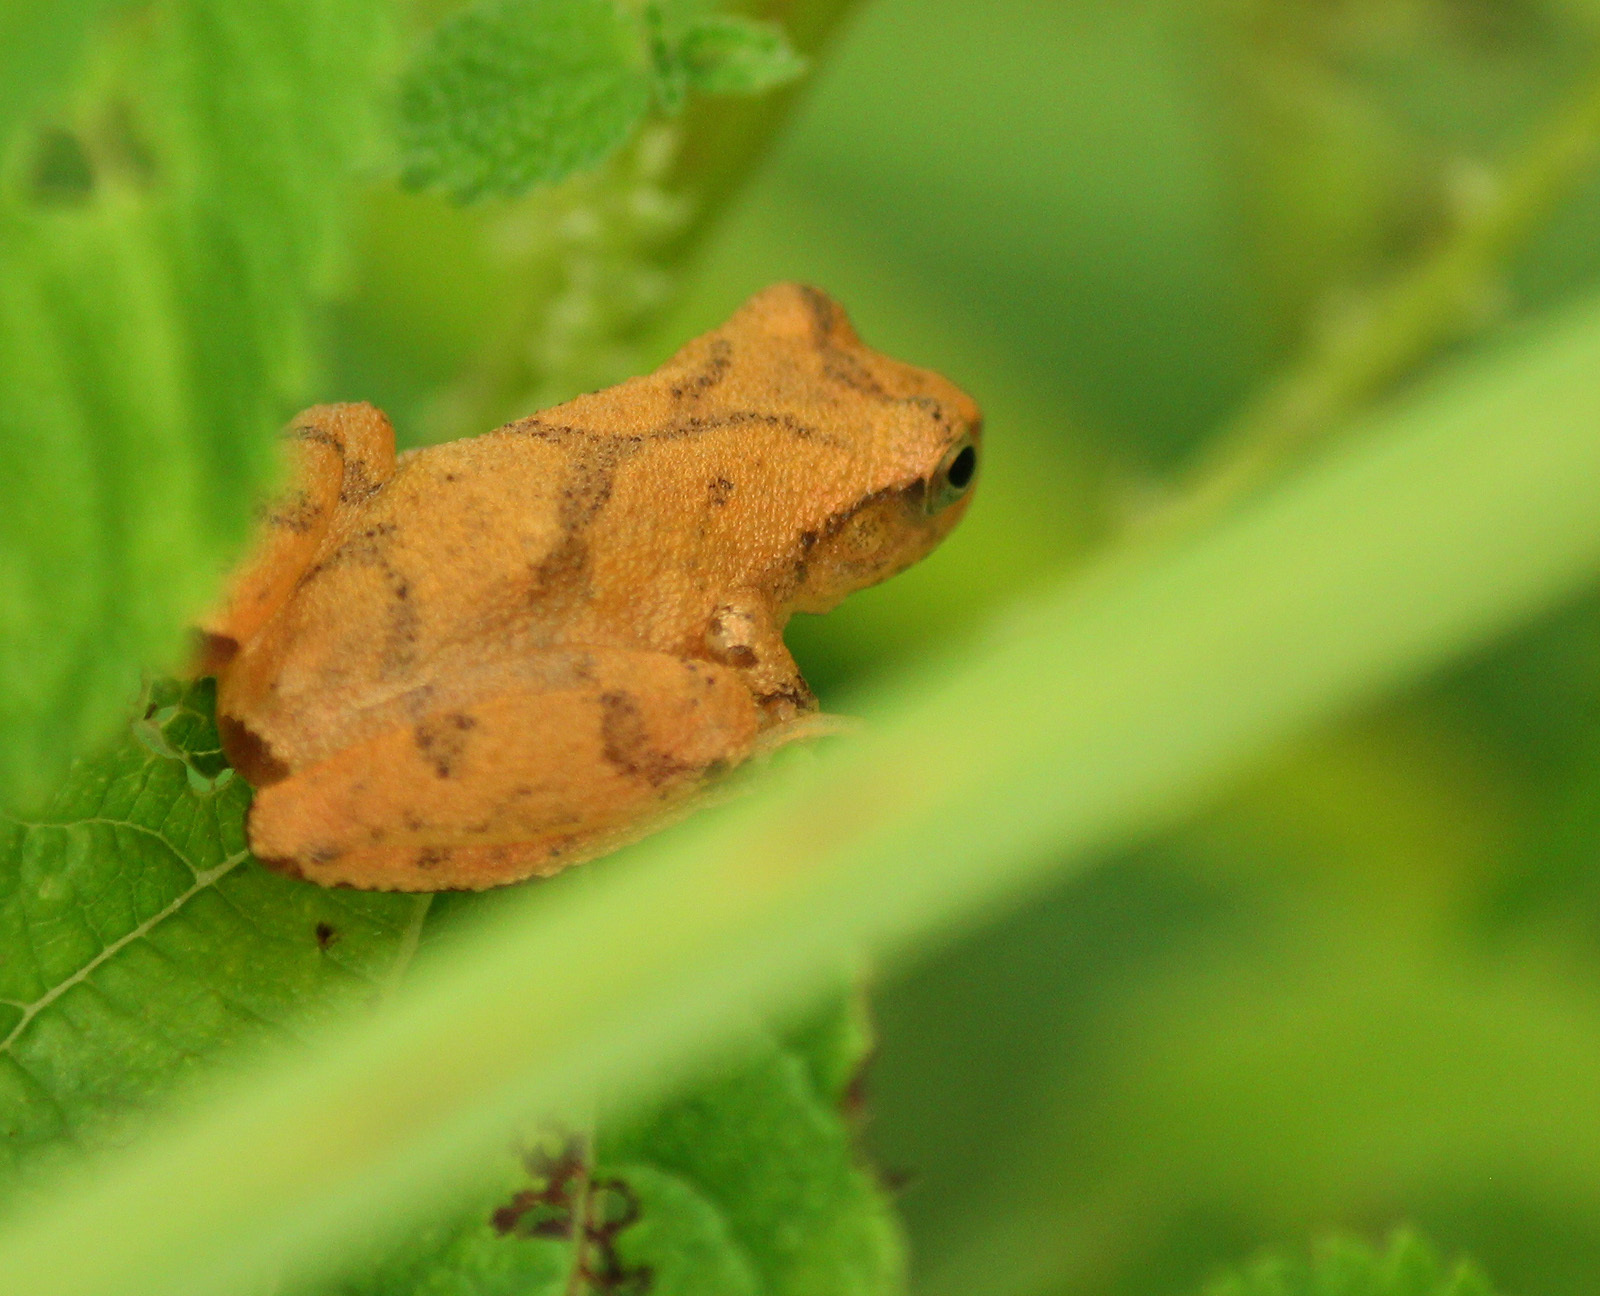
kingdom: Animalia
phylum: Chordata
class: Amphibia
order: Anura
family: Hylidae
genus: Pseudacris
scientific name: Pseudacris crucifer
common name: Spring peeper
